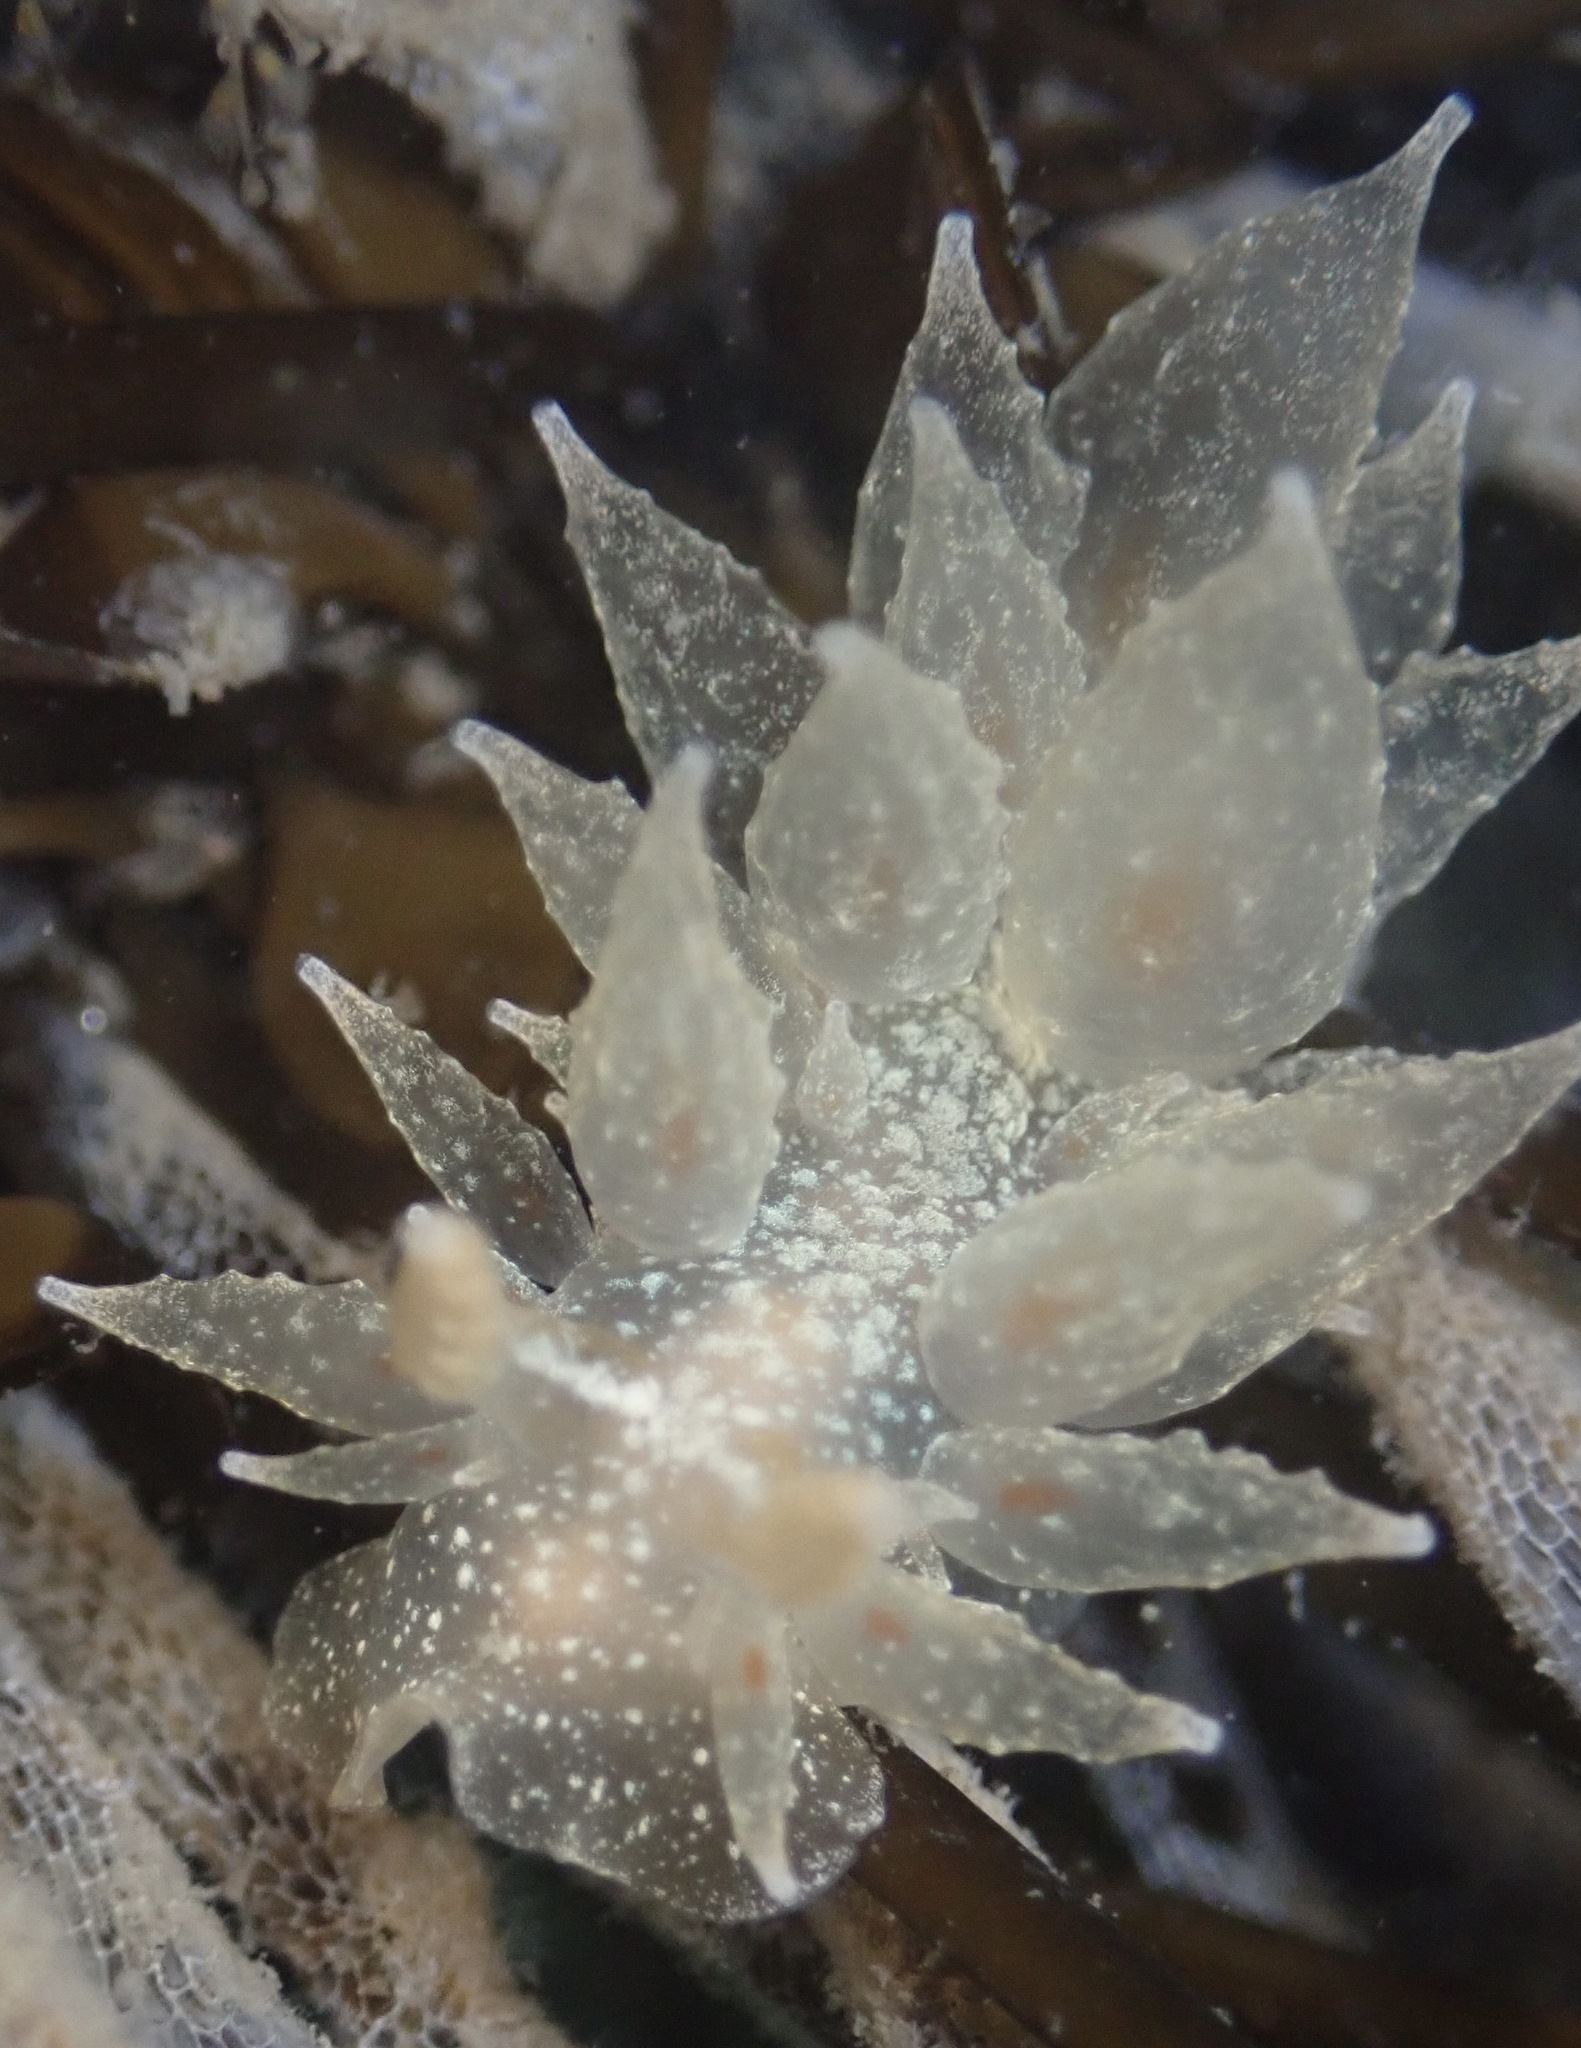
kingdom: Animalia
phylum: Mollusca
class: Gastropoda
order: Nudibranchia
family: Dironidae
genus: Dirona
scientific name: Dirona picta
